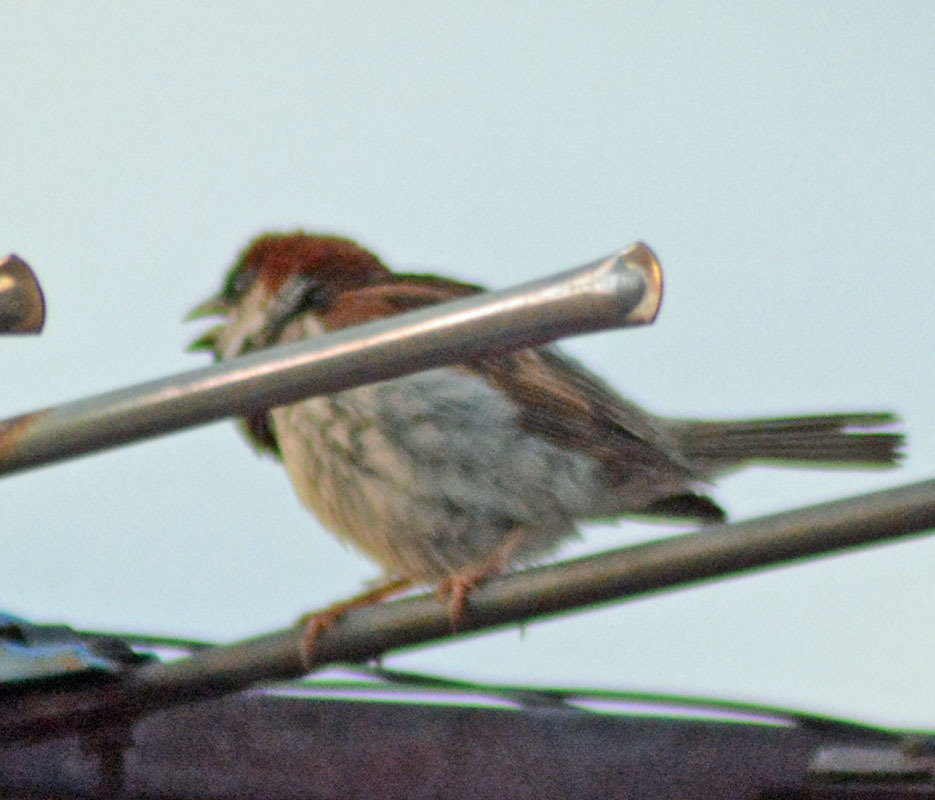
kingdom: Animalia
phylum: Chordata
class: Aves
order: Passeriformes
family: Passeridae
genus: Passer
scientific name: Passer domesticus
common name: House sparrow
